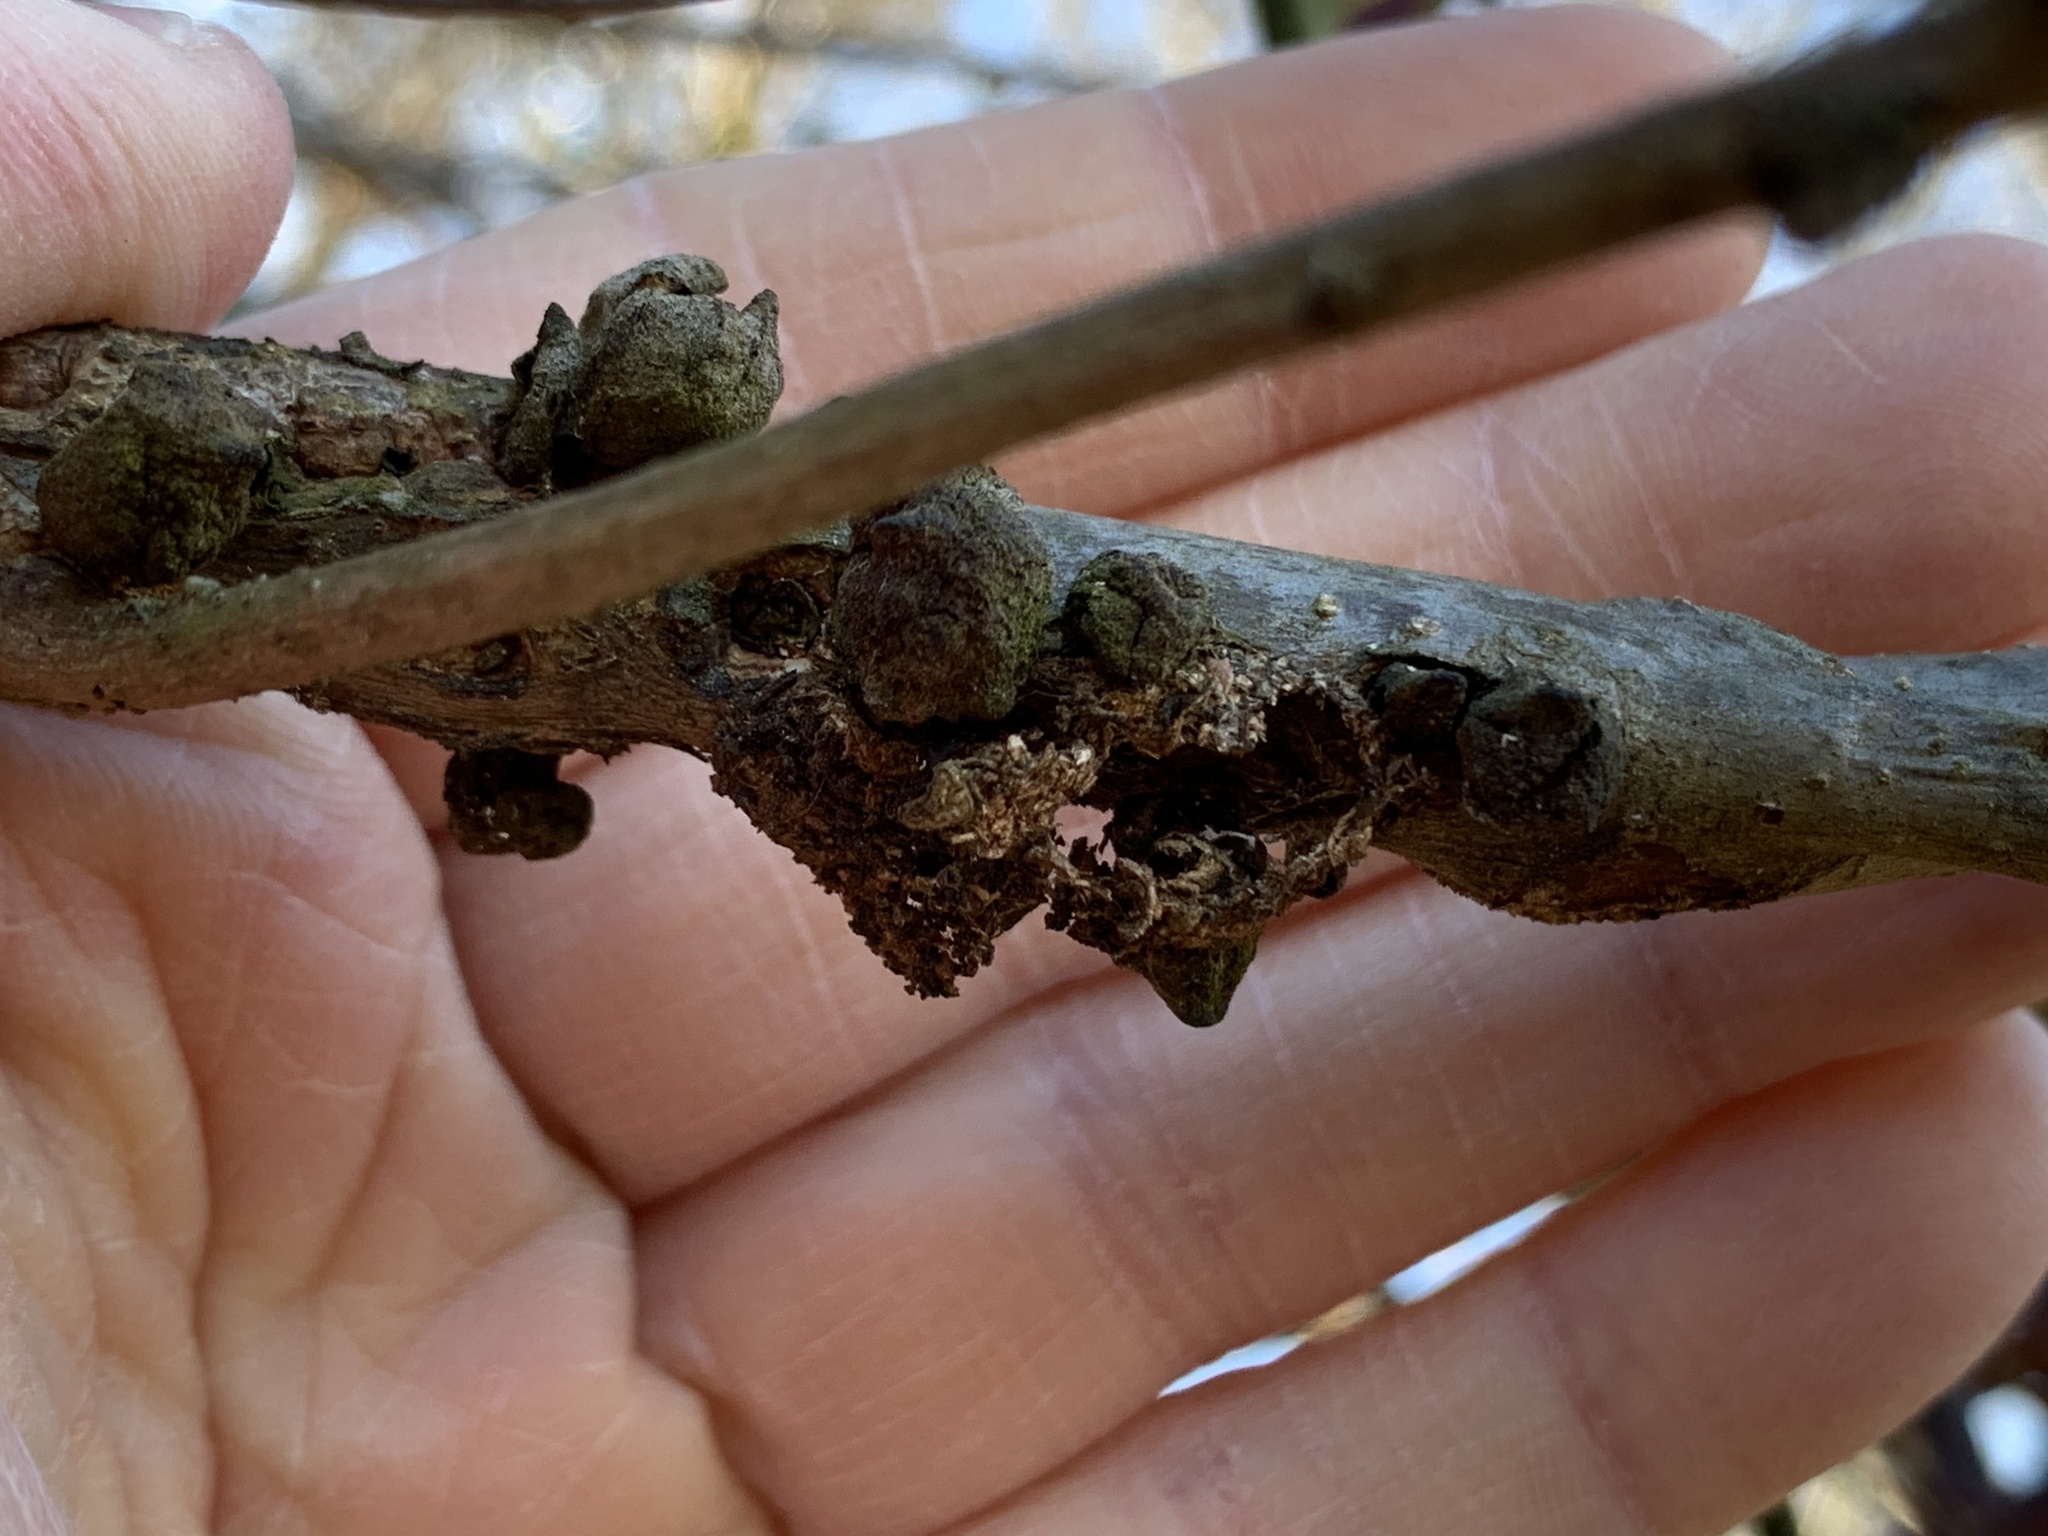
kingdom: Animalia
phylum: Arthropoda
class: Insecta
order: Hymenoptera
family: Cynipidae
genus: Disholcaspis
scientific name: Disholcaspis
